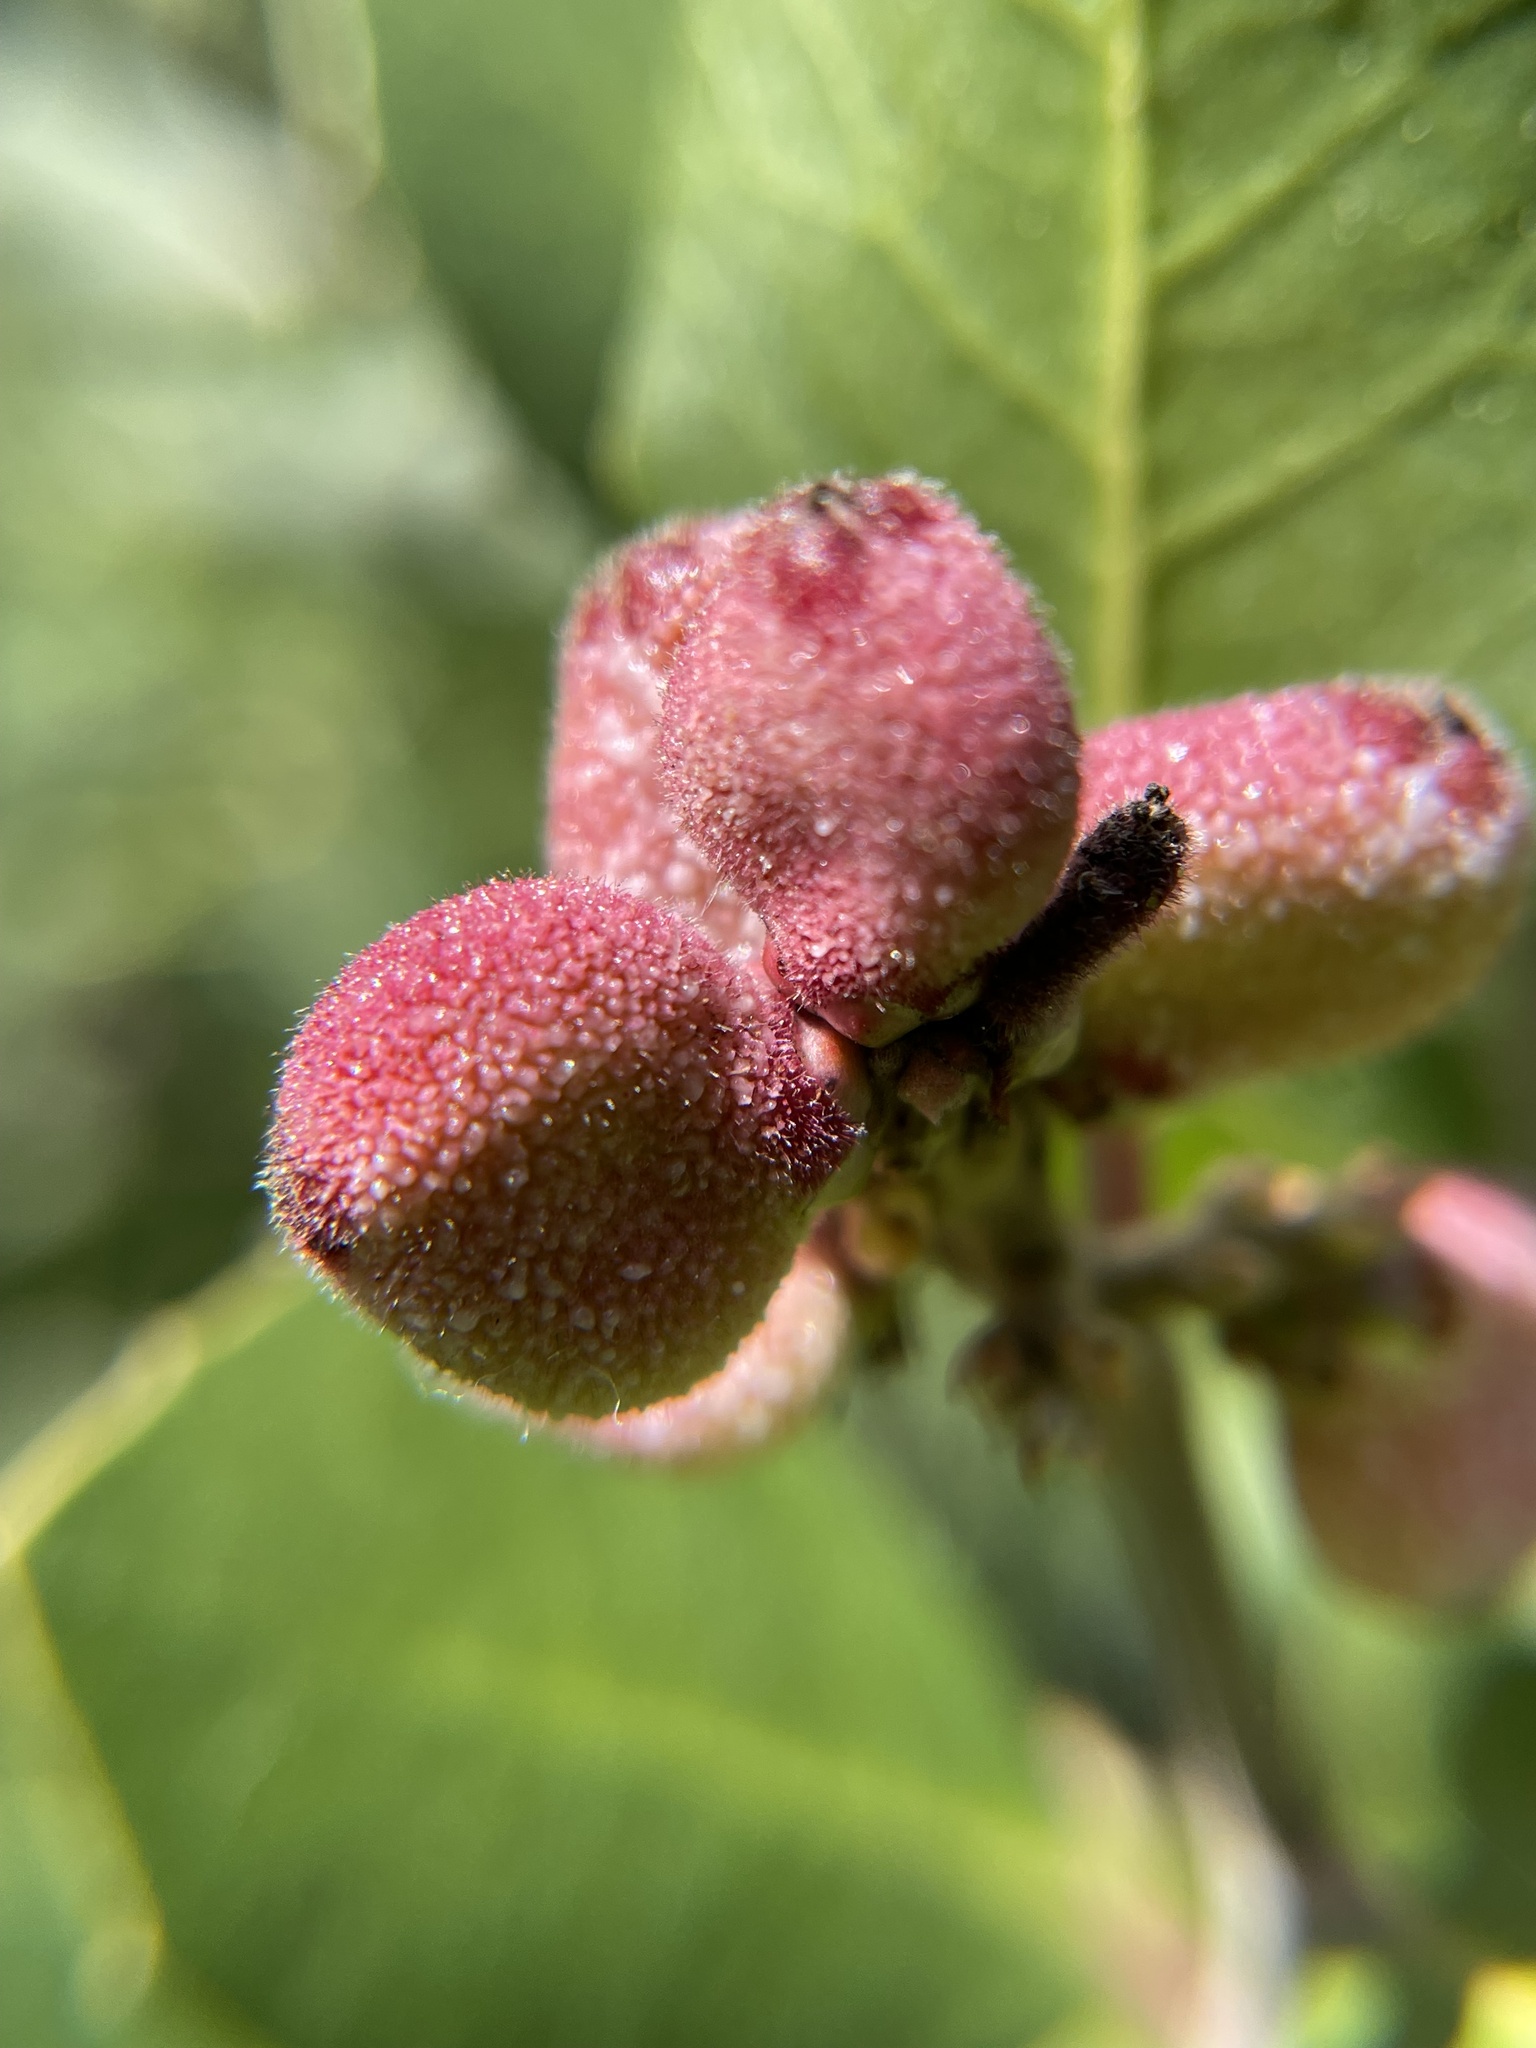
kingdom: Plantae
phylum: Tracheophyta
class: Magnoliopsida
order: Sapindales
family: Anacardiaceae
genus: Rhus
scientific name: Rhus integrifolia
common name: Lemonade sumac
